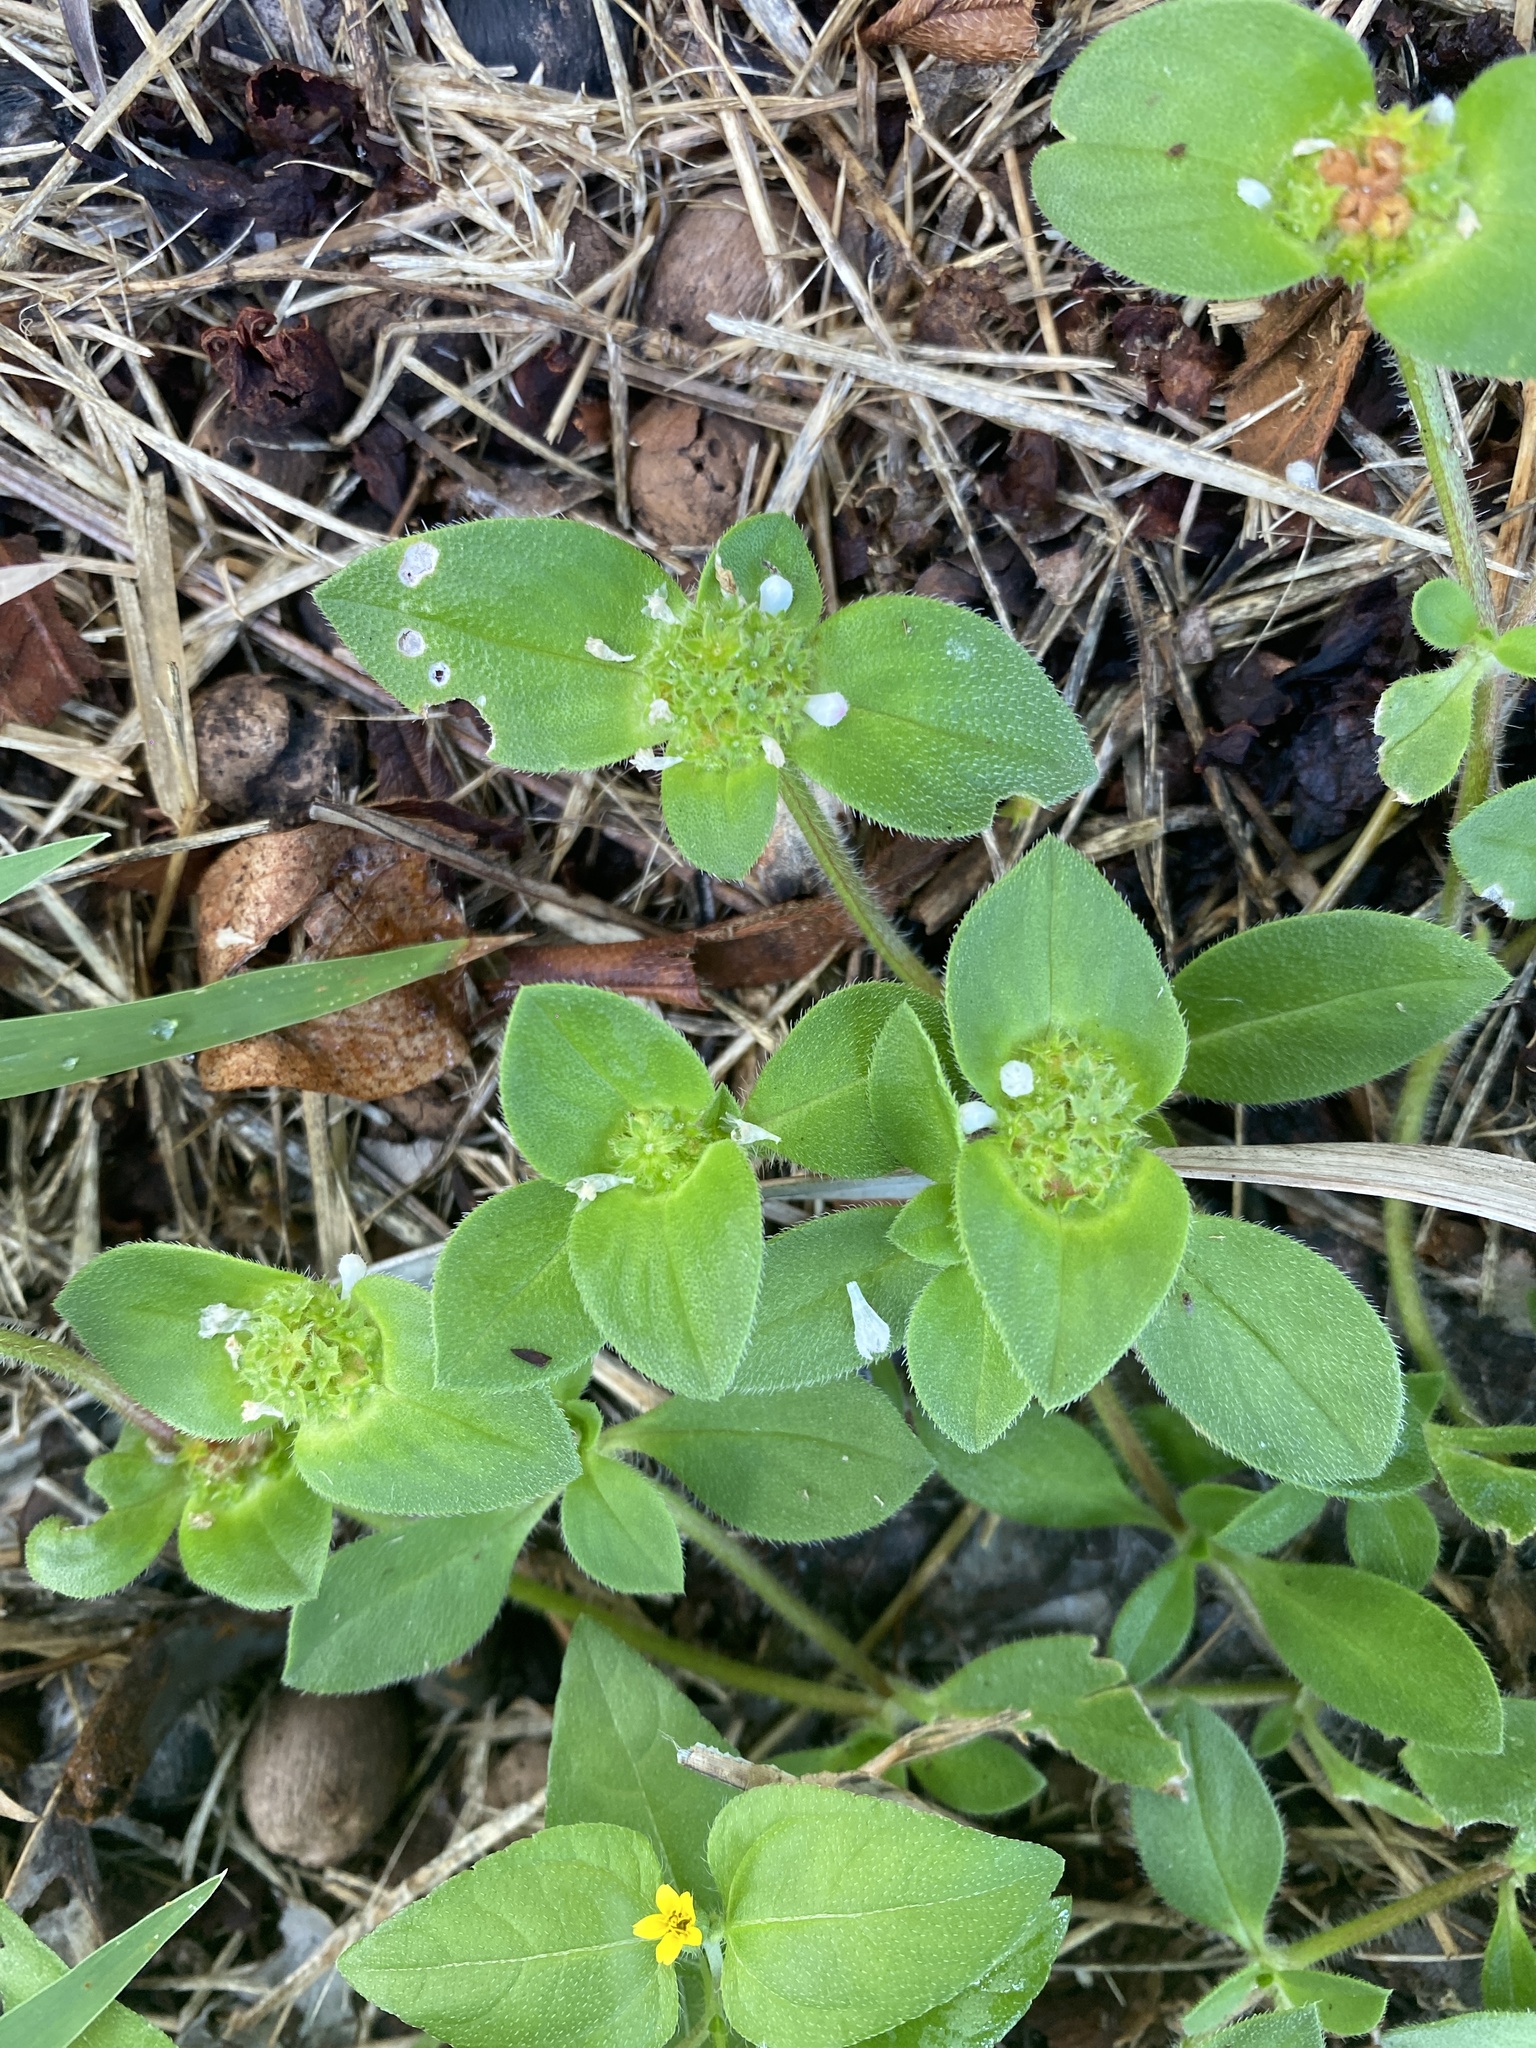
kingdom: Plantae
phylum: Tracheophyta
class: Magnoliopsida
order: Gentianales
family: Rubiaceae
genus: Richardia
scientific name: Richardia brasiliensis
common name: Tropical mexican clover
